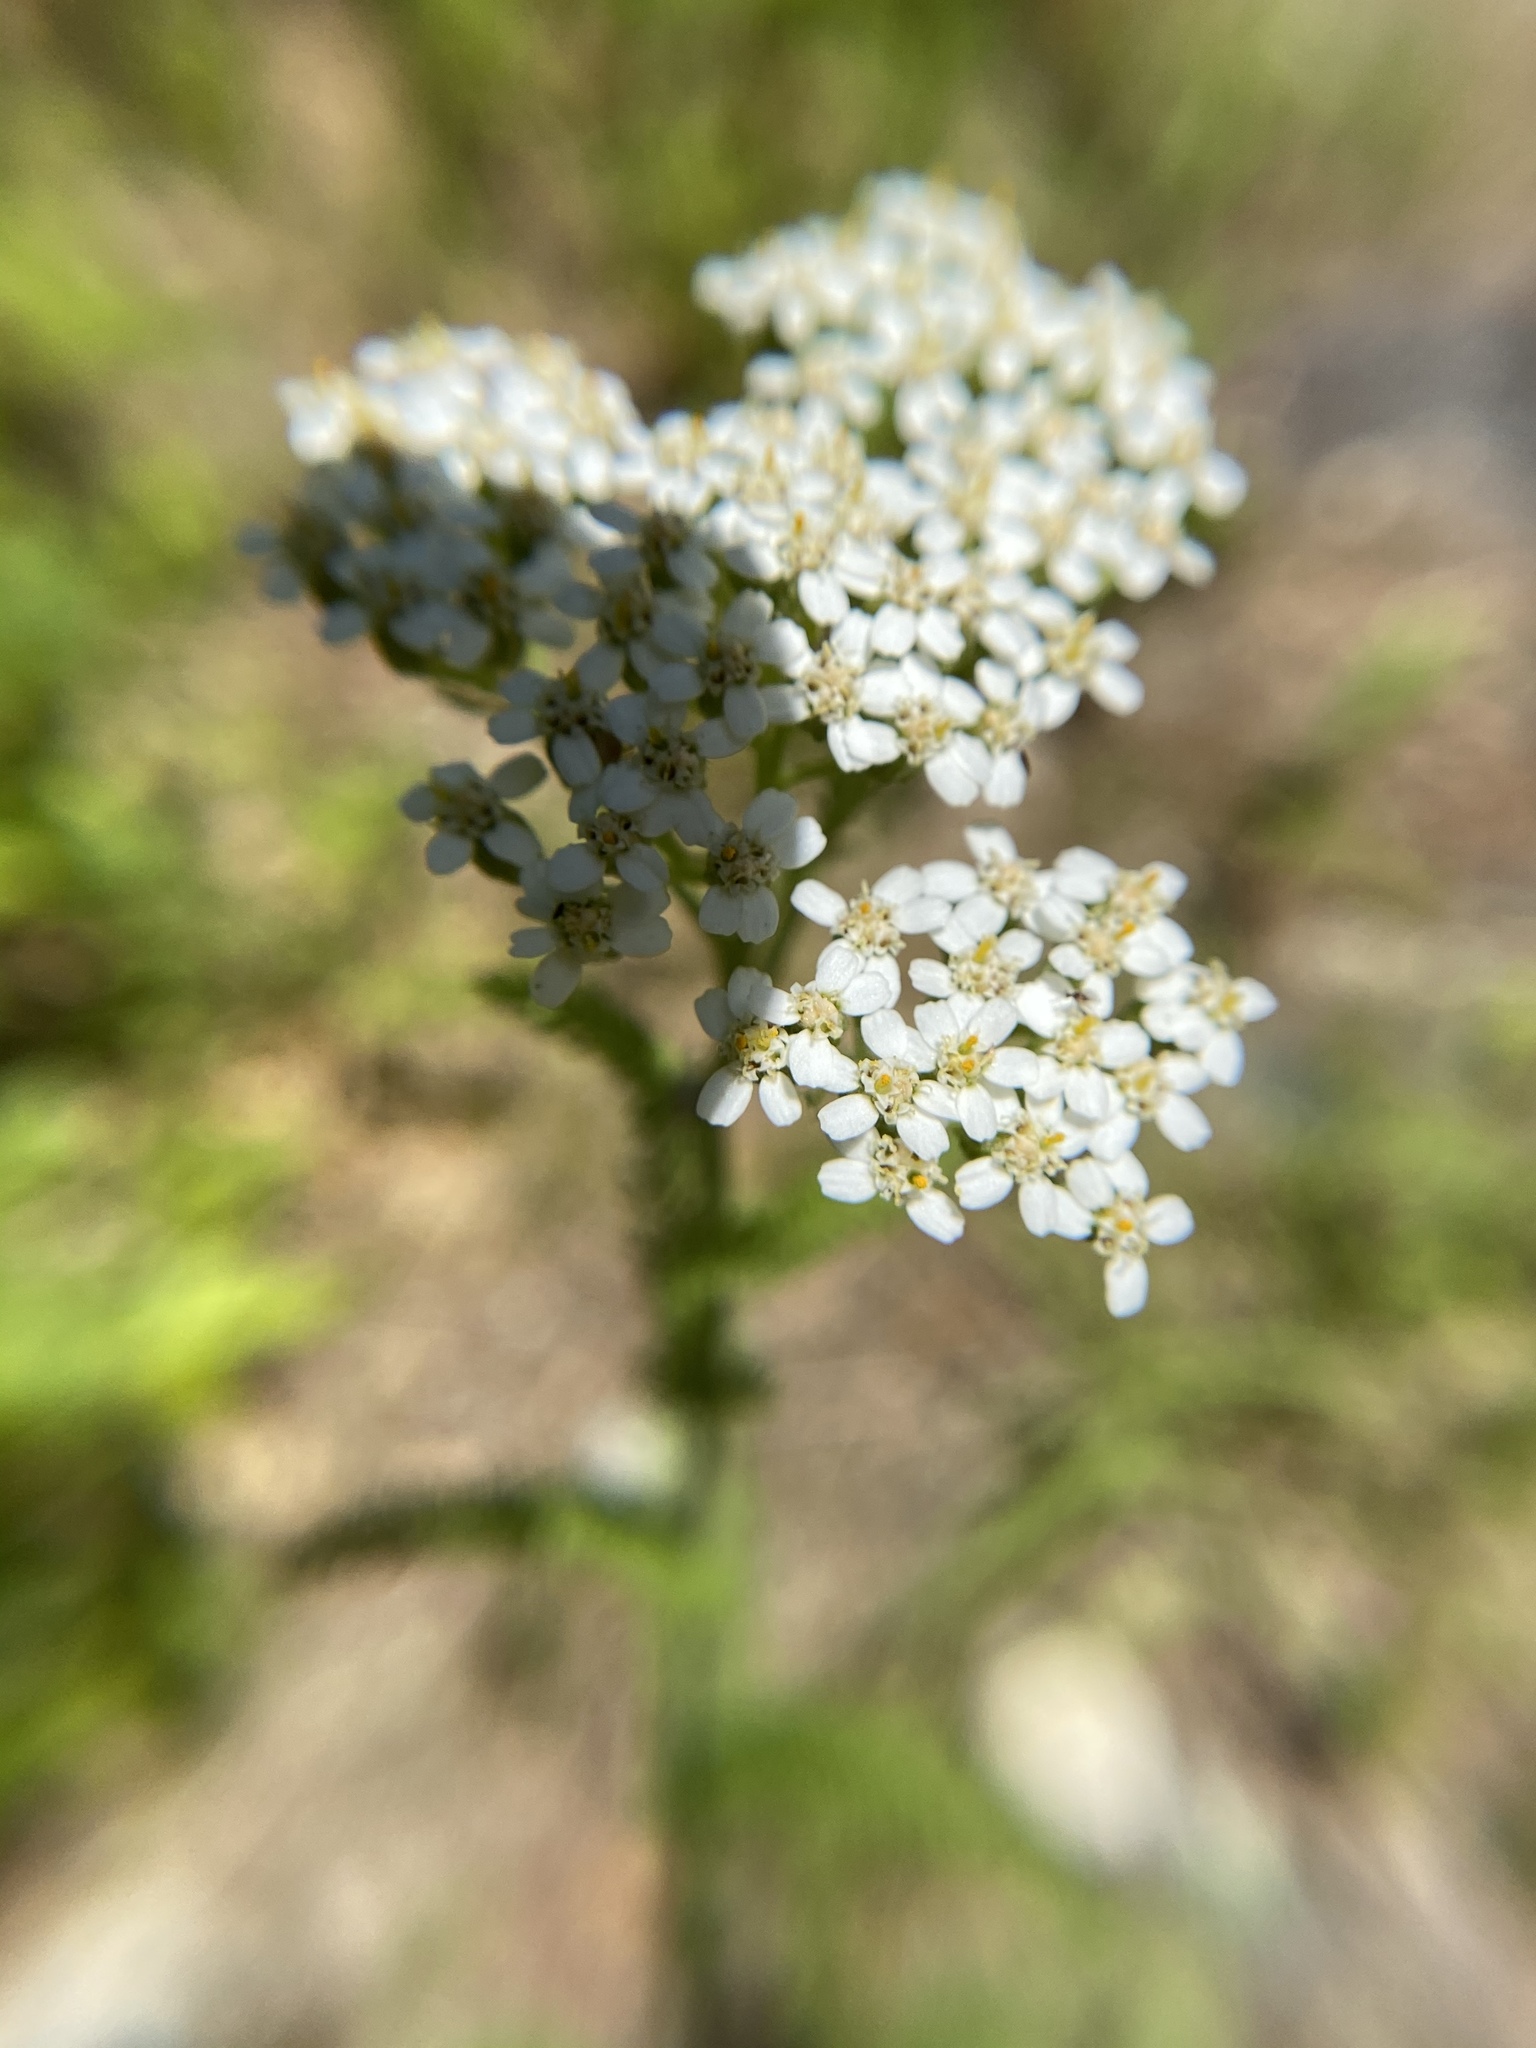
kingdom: Plantae
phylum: Tracheophyta
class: Magnoliopsida
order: Asterales
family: Asteraceae
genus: Achillea
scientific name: Achillea millefolium
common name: Yarrow
